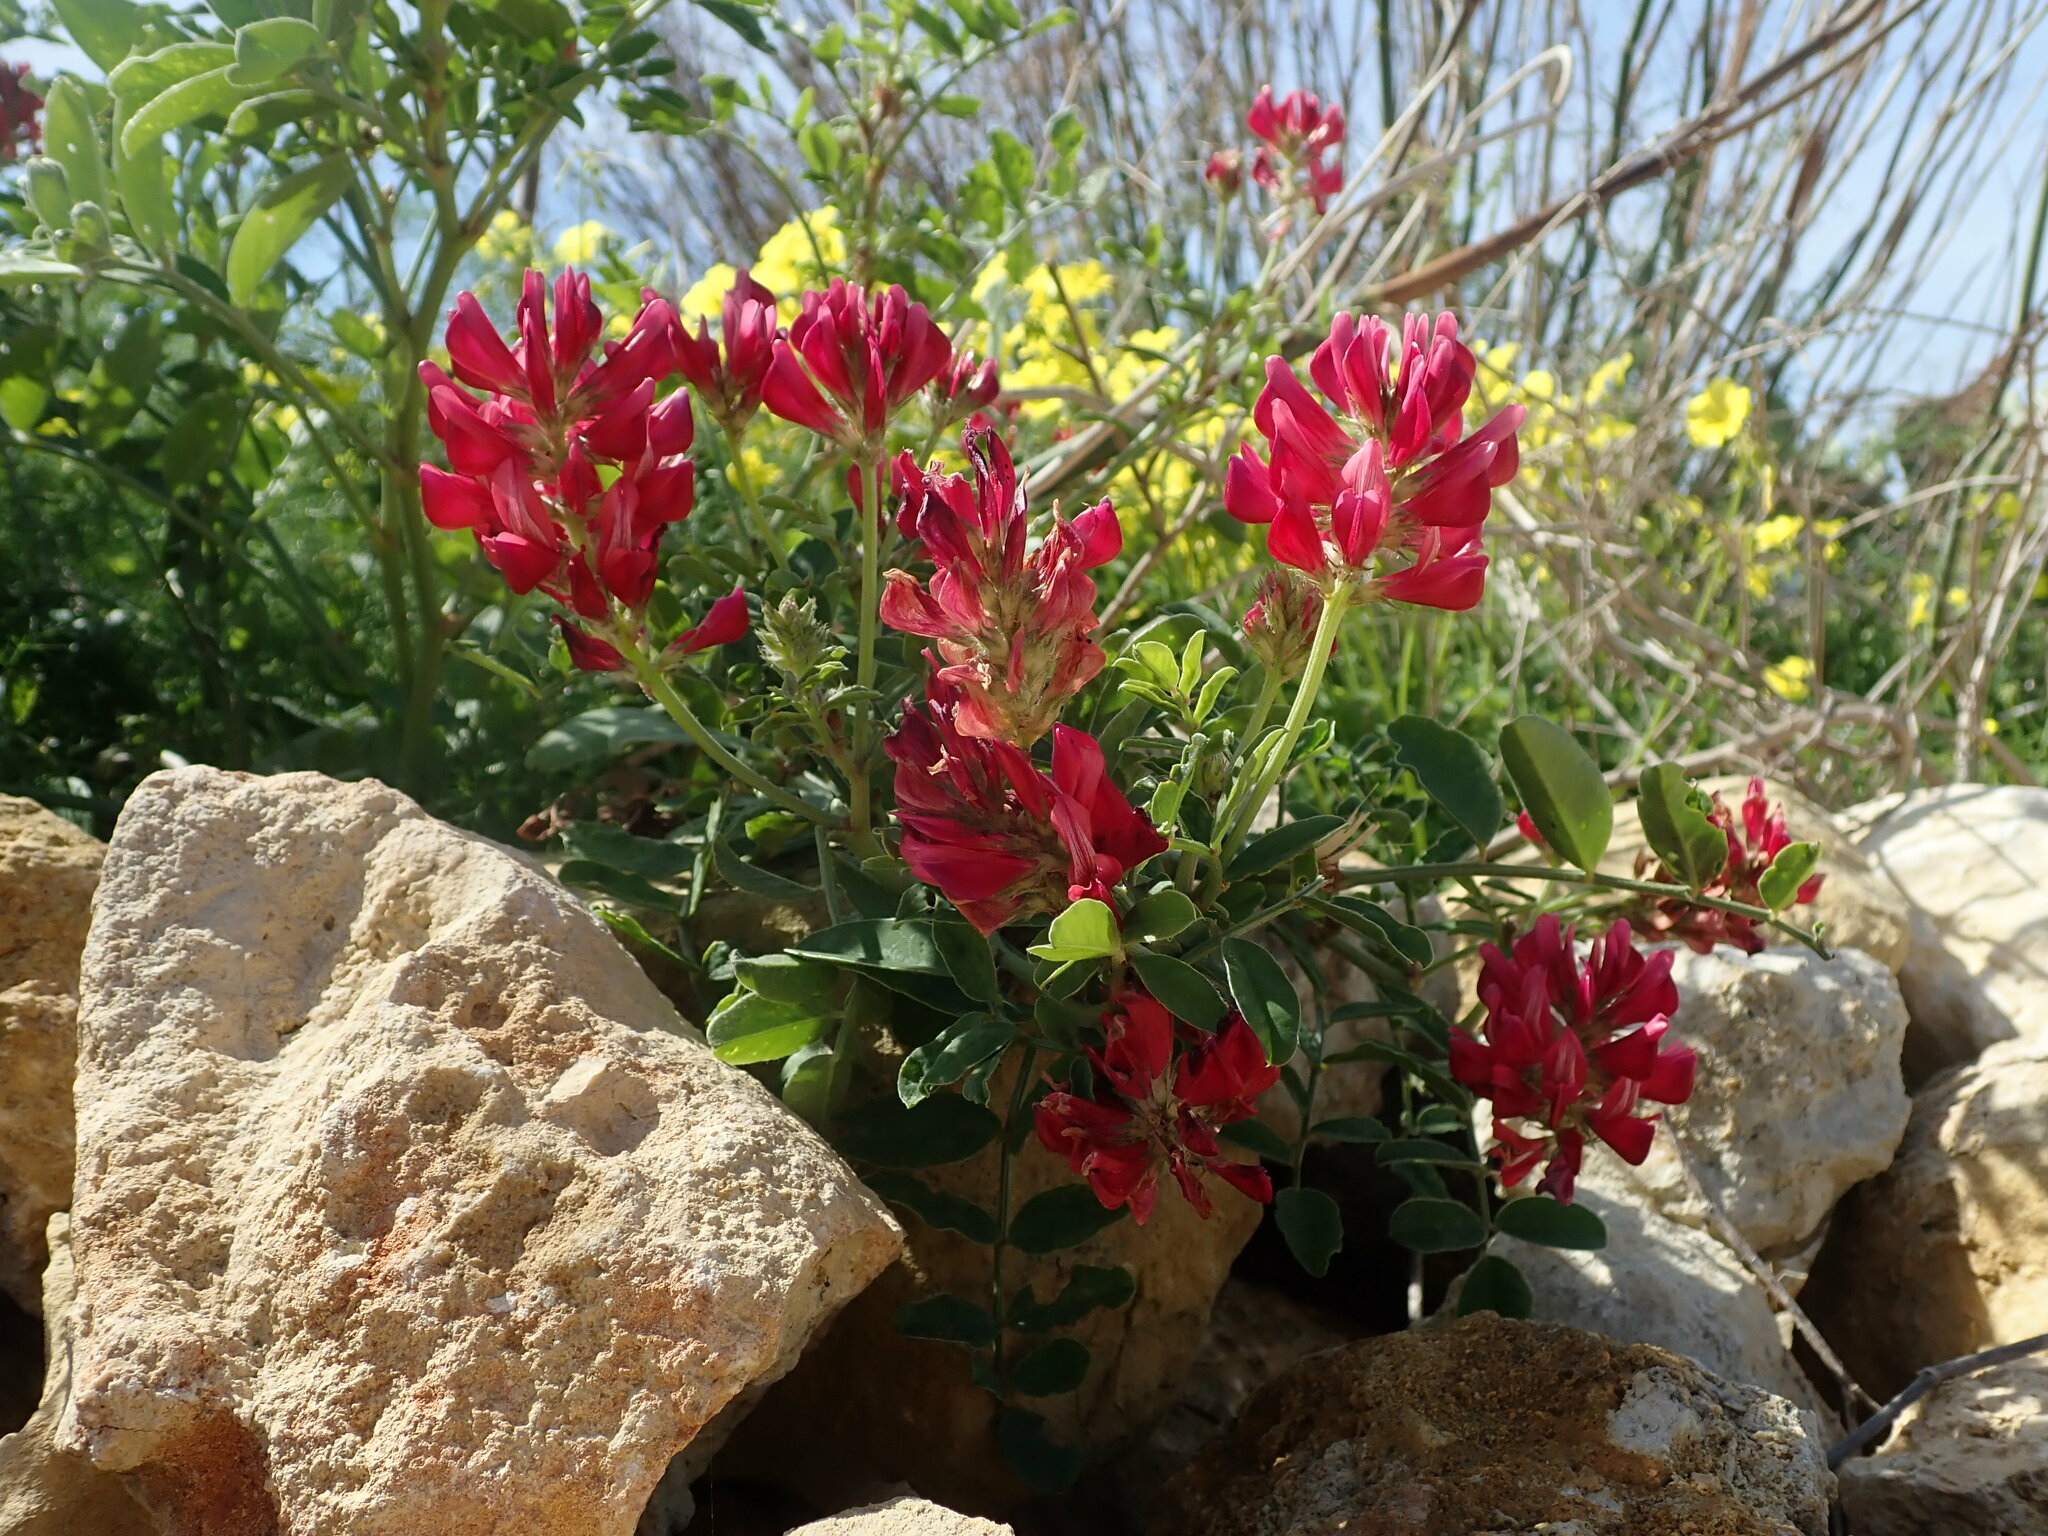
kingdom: Plantae
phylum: Tracheophyta
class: Magnoliopsida
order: Fabales
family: Fabaceae
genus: Sulla
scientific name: Sulla coronaria
